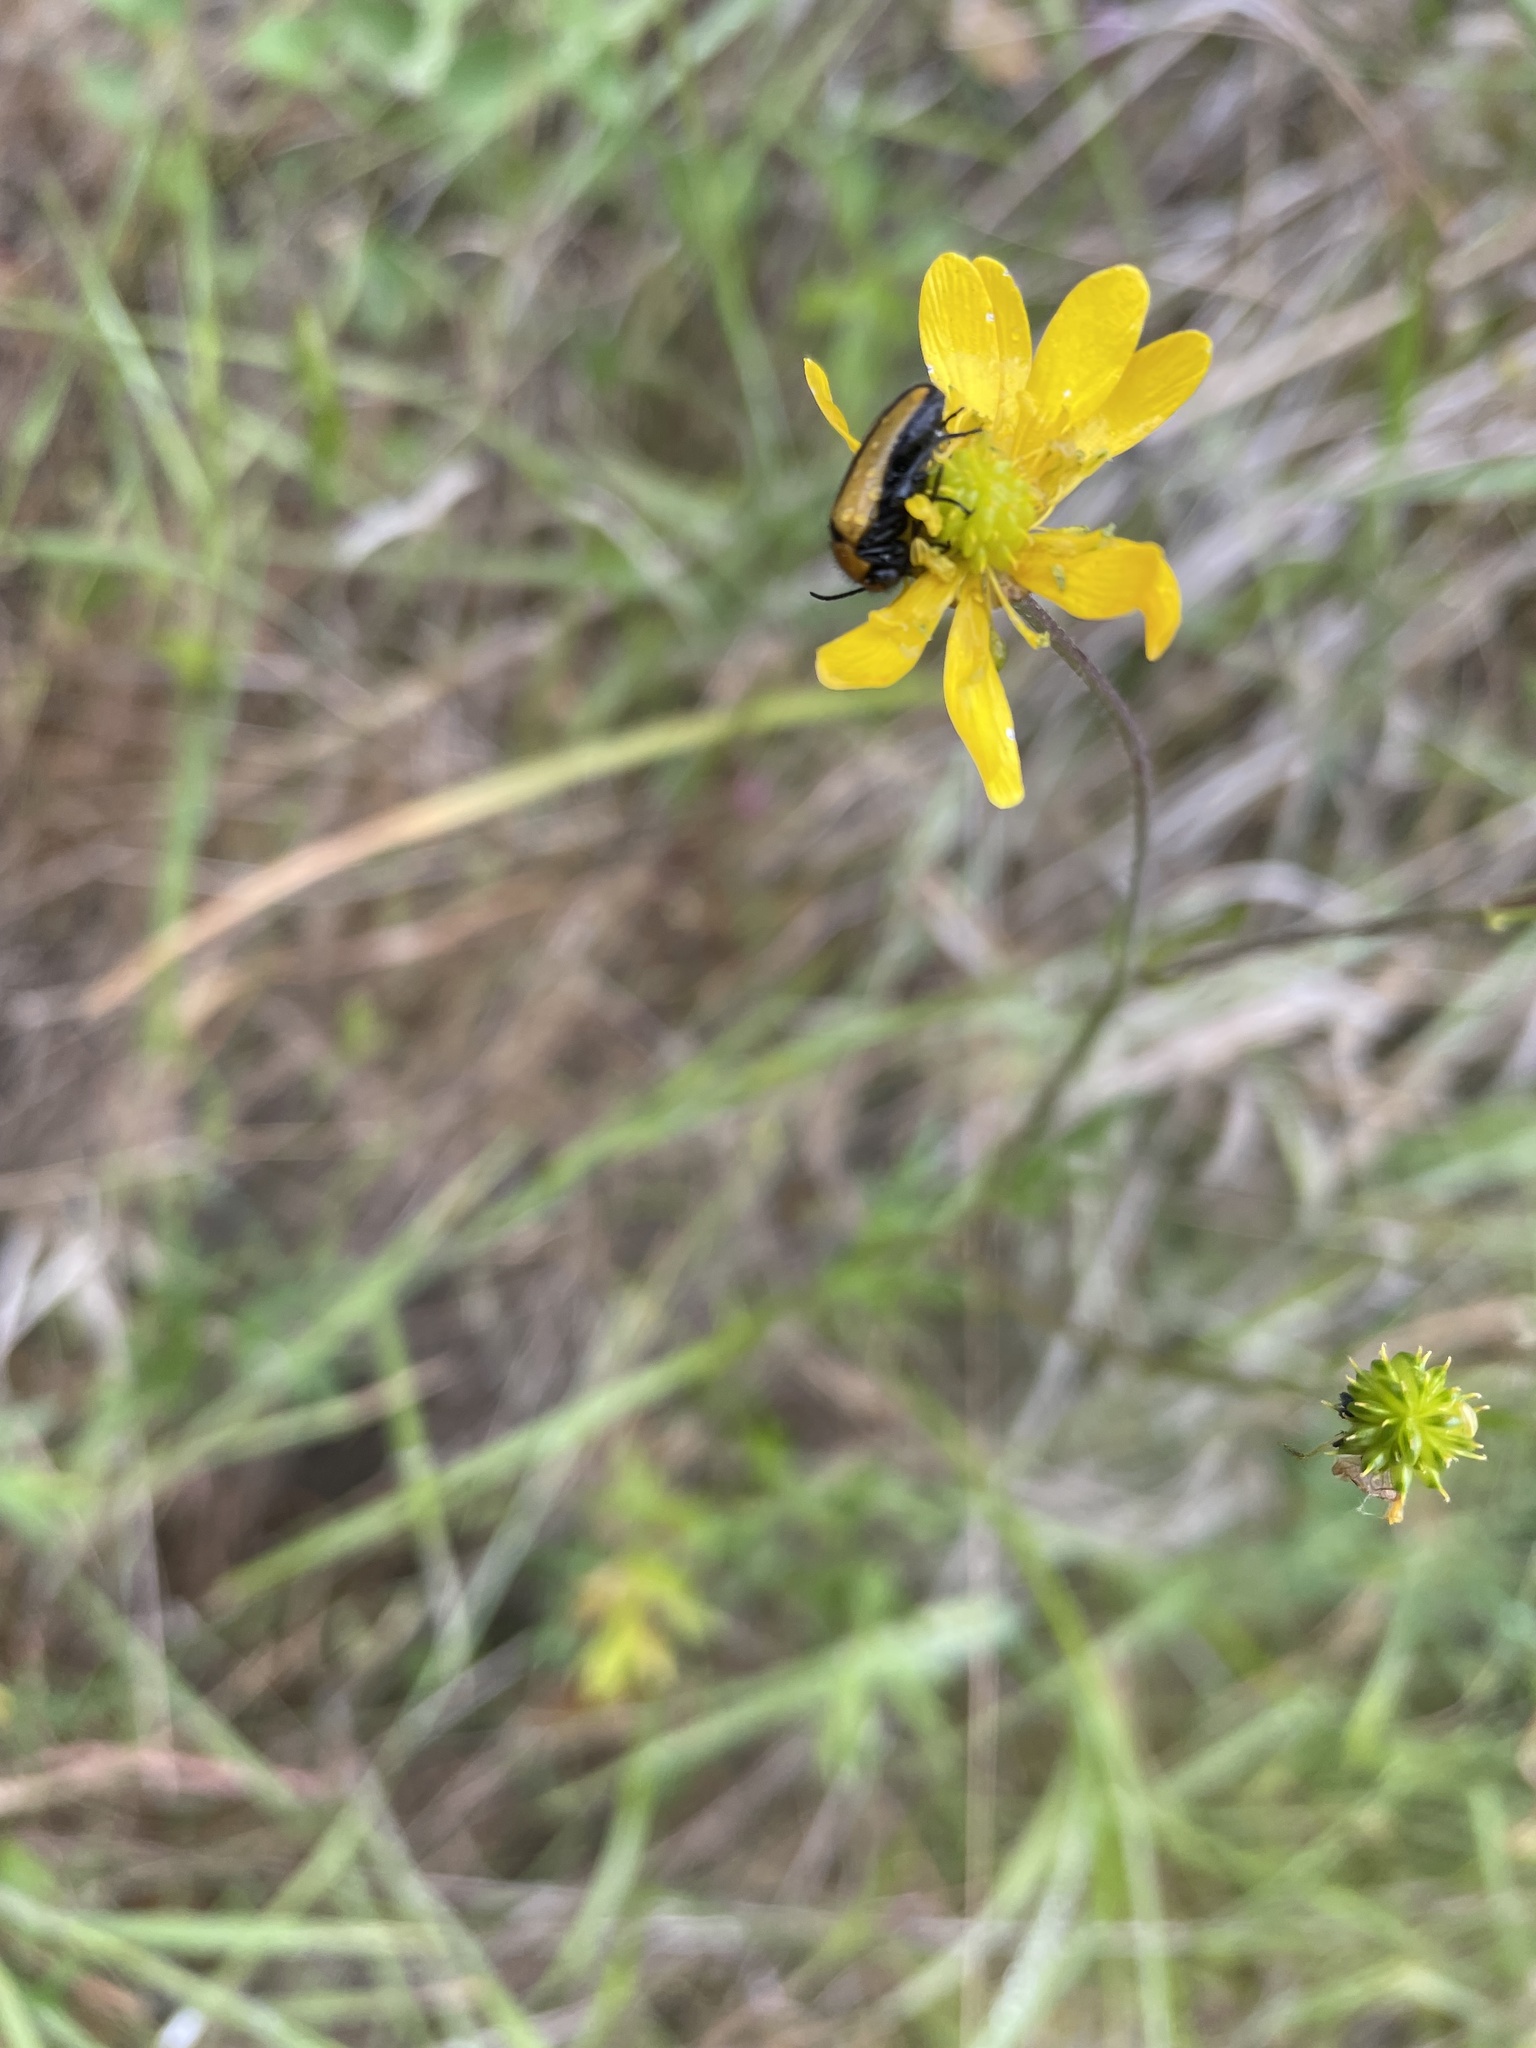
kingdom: Plantae
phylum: Tracheophyta
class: Magnoliopsida
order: Ranunculales
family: Ranunculaceae
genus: Ranunculus
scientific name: Ranunculus californicus
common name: California buttercup
